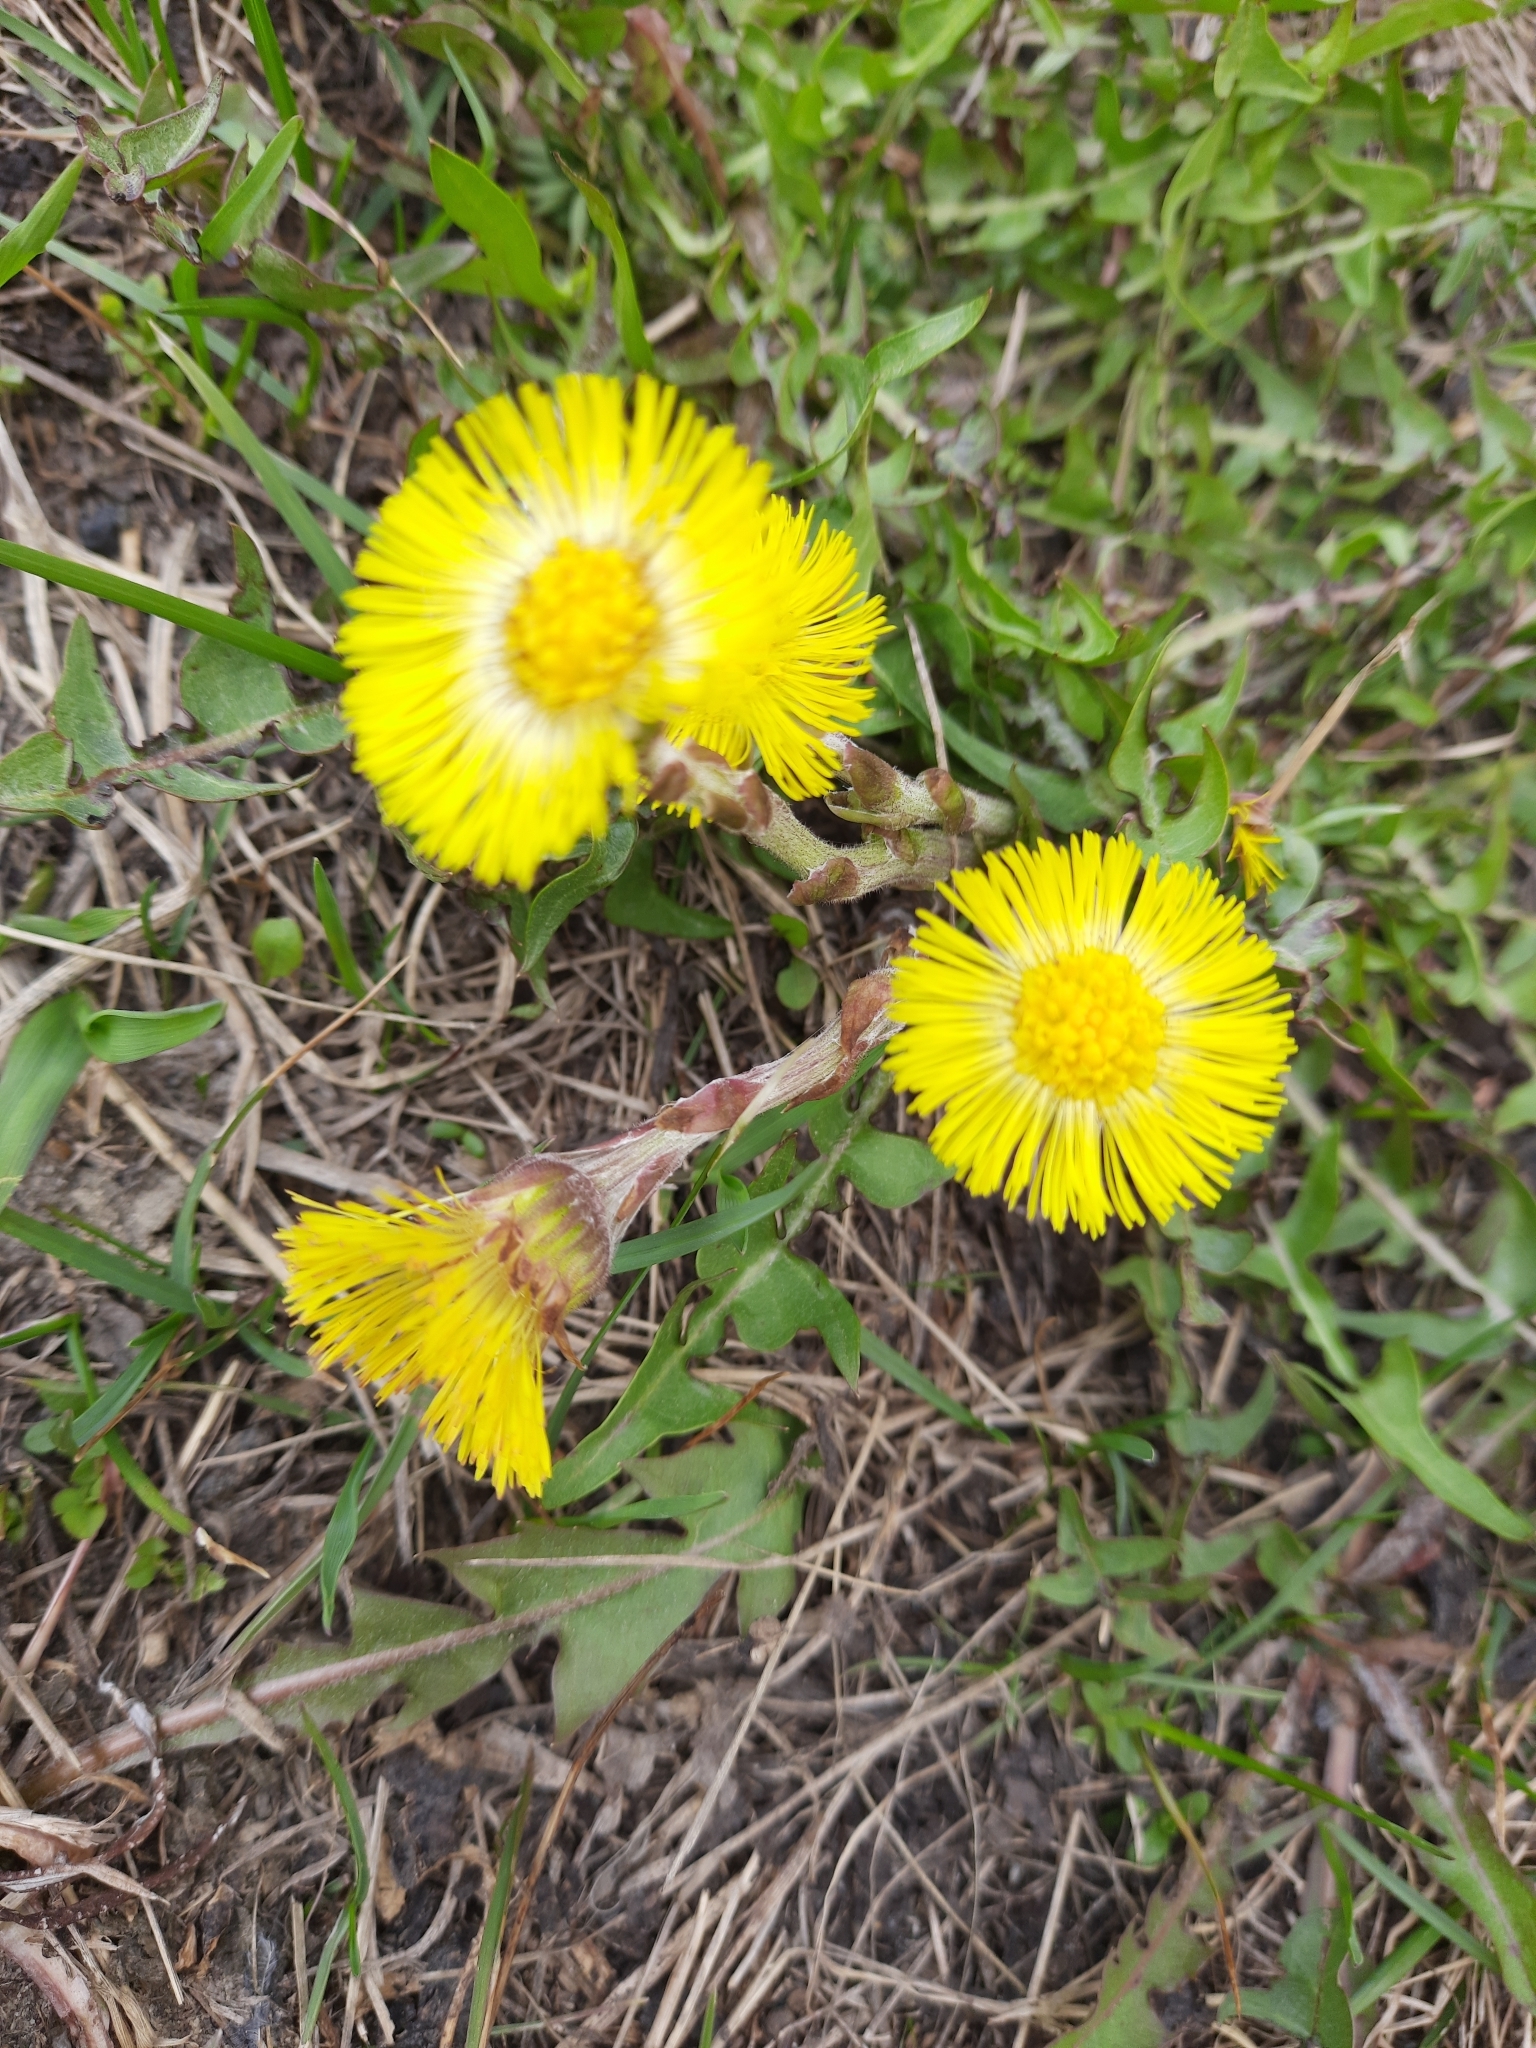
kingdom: Plantae
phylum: Tracheophyta
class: Magnoliopsida
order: Asterales
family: Asteraceae
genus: Tussilago
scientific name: Tussilago farfara
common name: Coltsfoot
